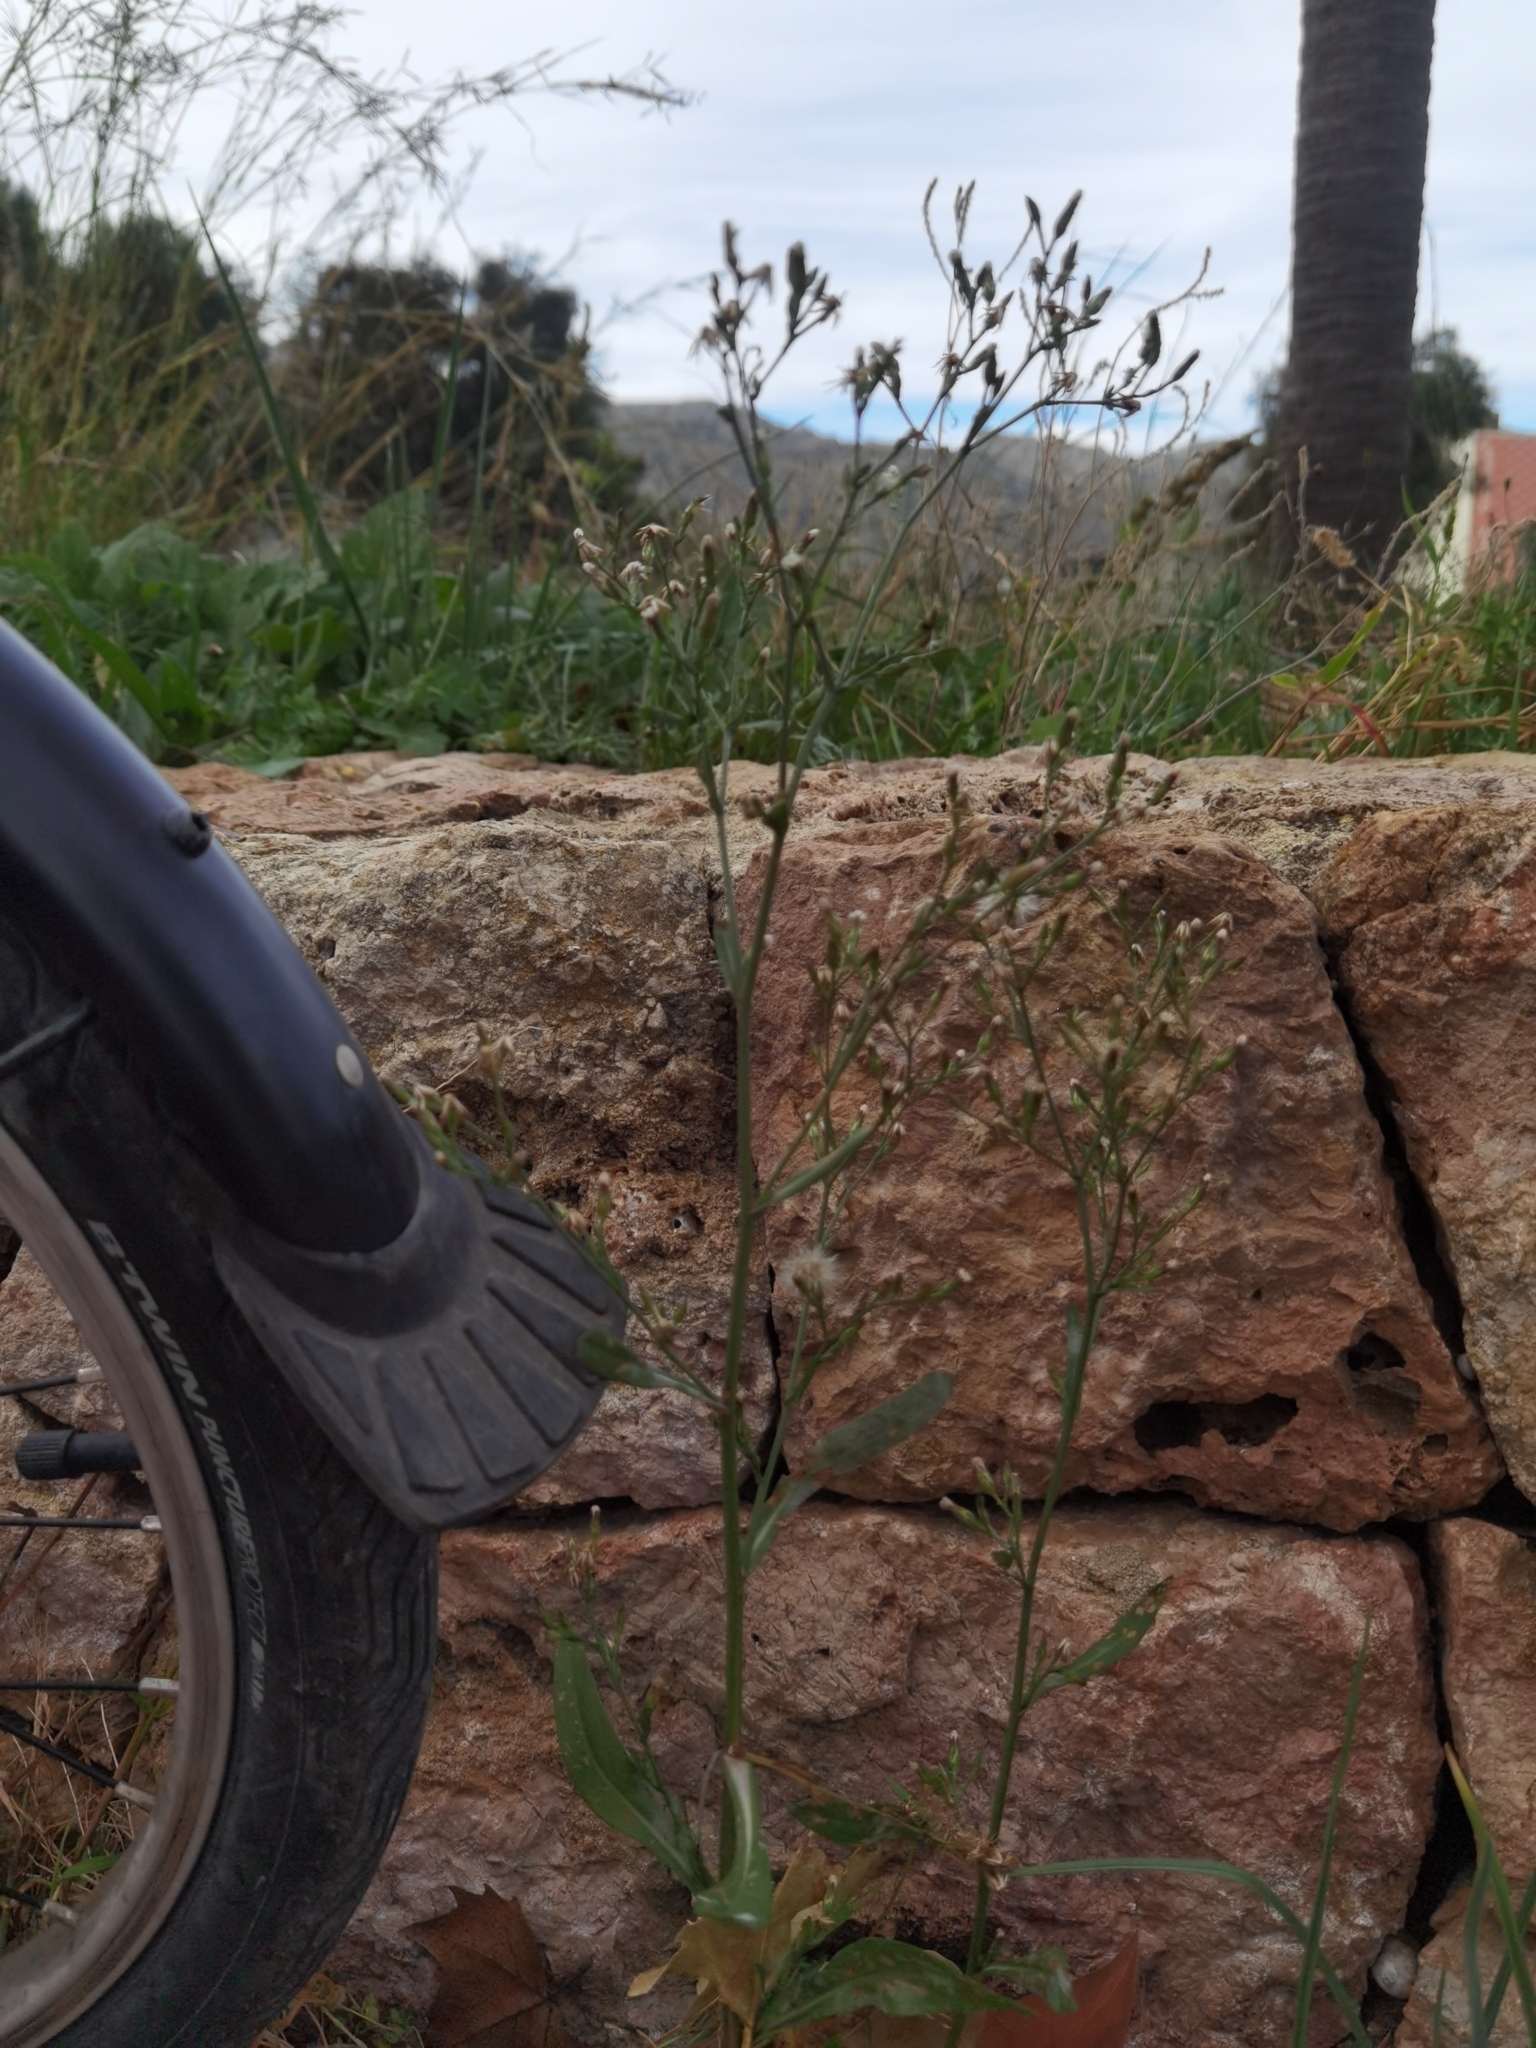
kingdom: Plantae
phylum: Tracheophyta
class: Magnoliopsida
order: Asterales
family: Asteraceae
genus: Symphyotrichum
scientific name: Symphyotrichum squamatum
